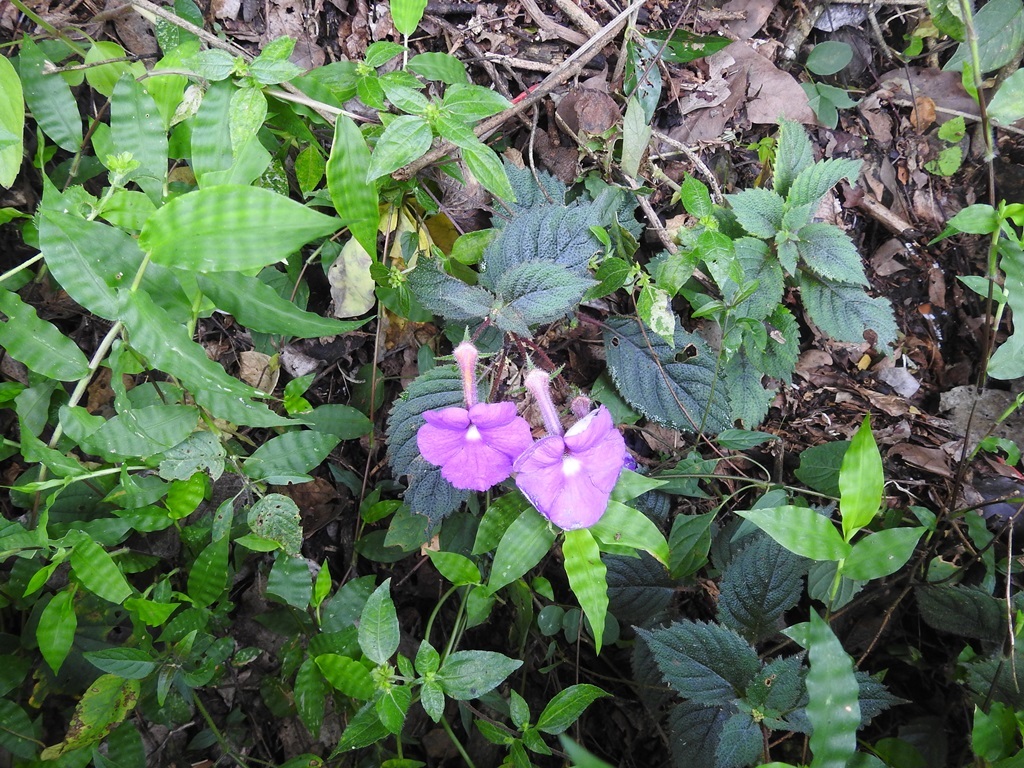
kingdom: Plantae
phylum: Tracheophyta
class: Magnoliopsida
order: Lamiales
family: Gesneriaceae
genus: Achimenes
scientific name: Achimenes grandiflora
